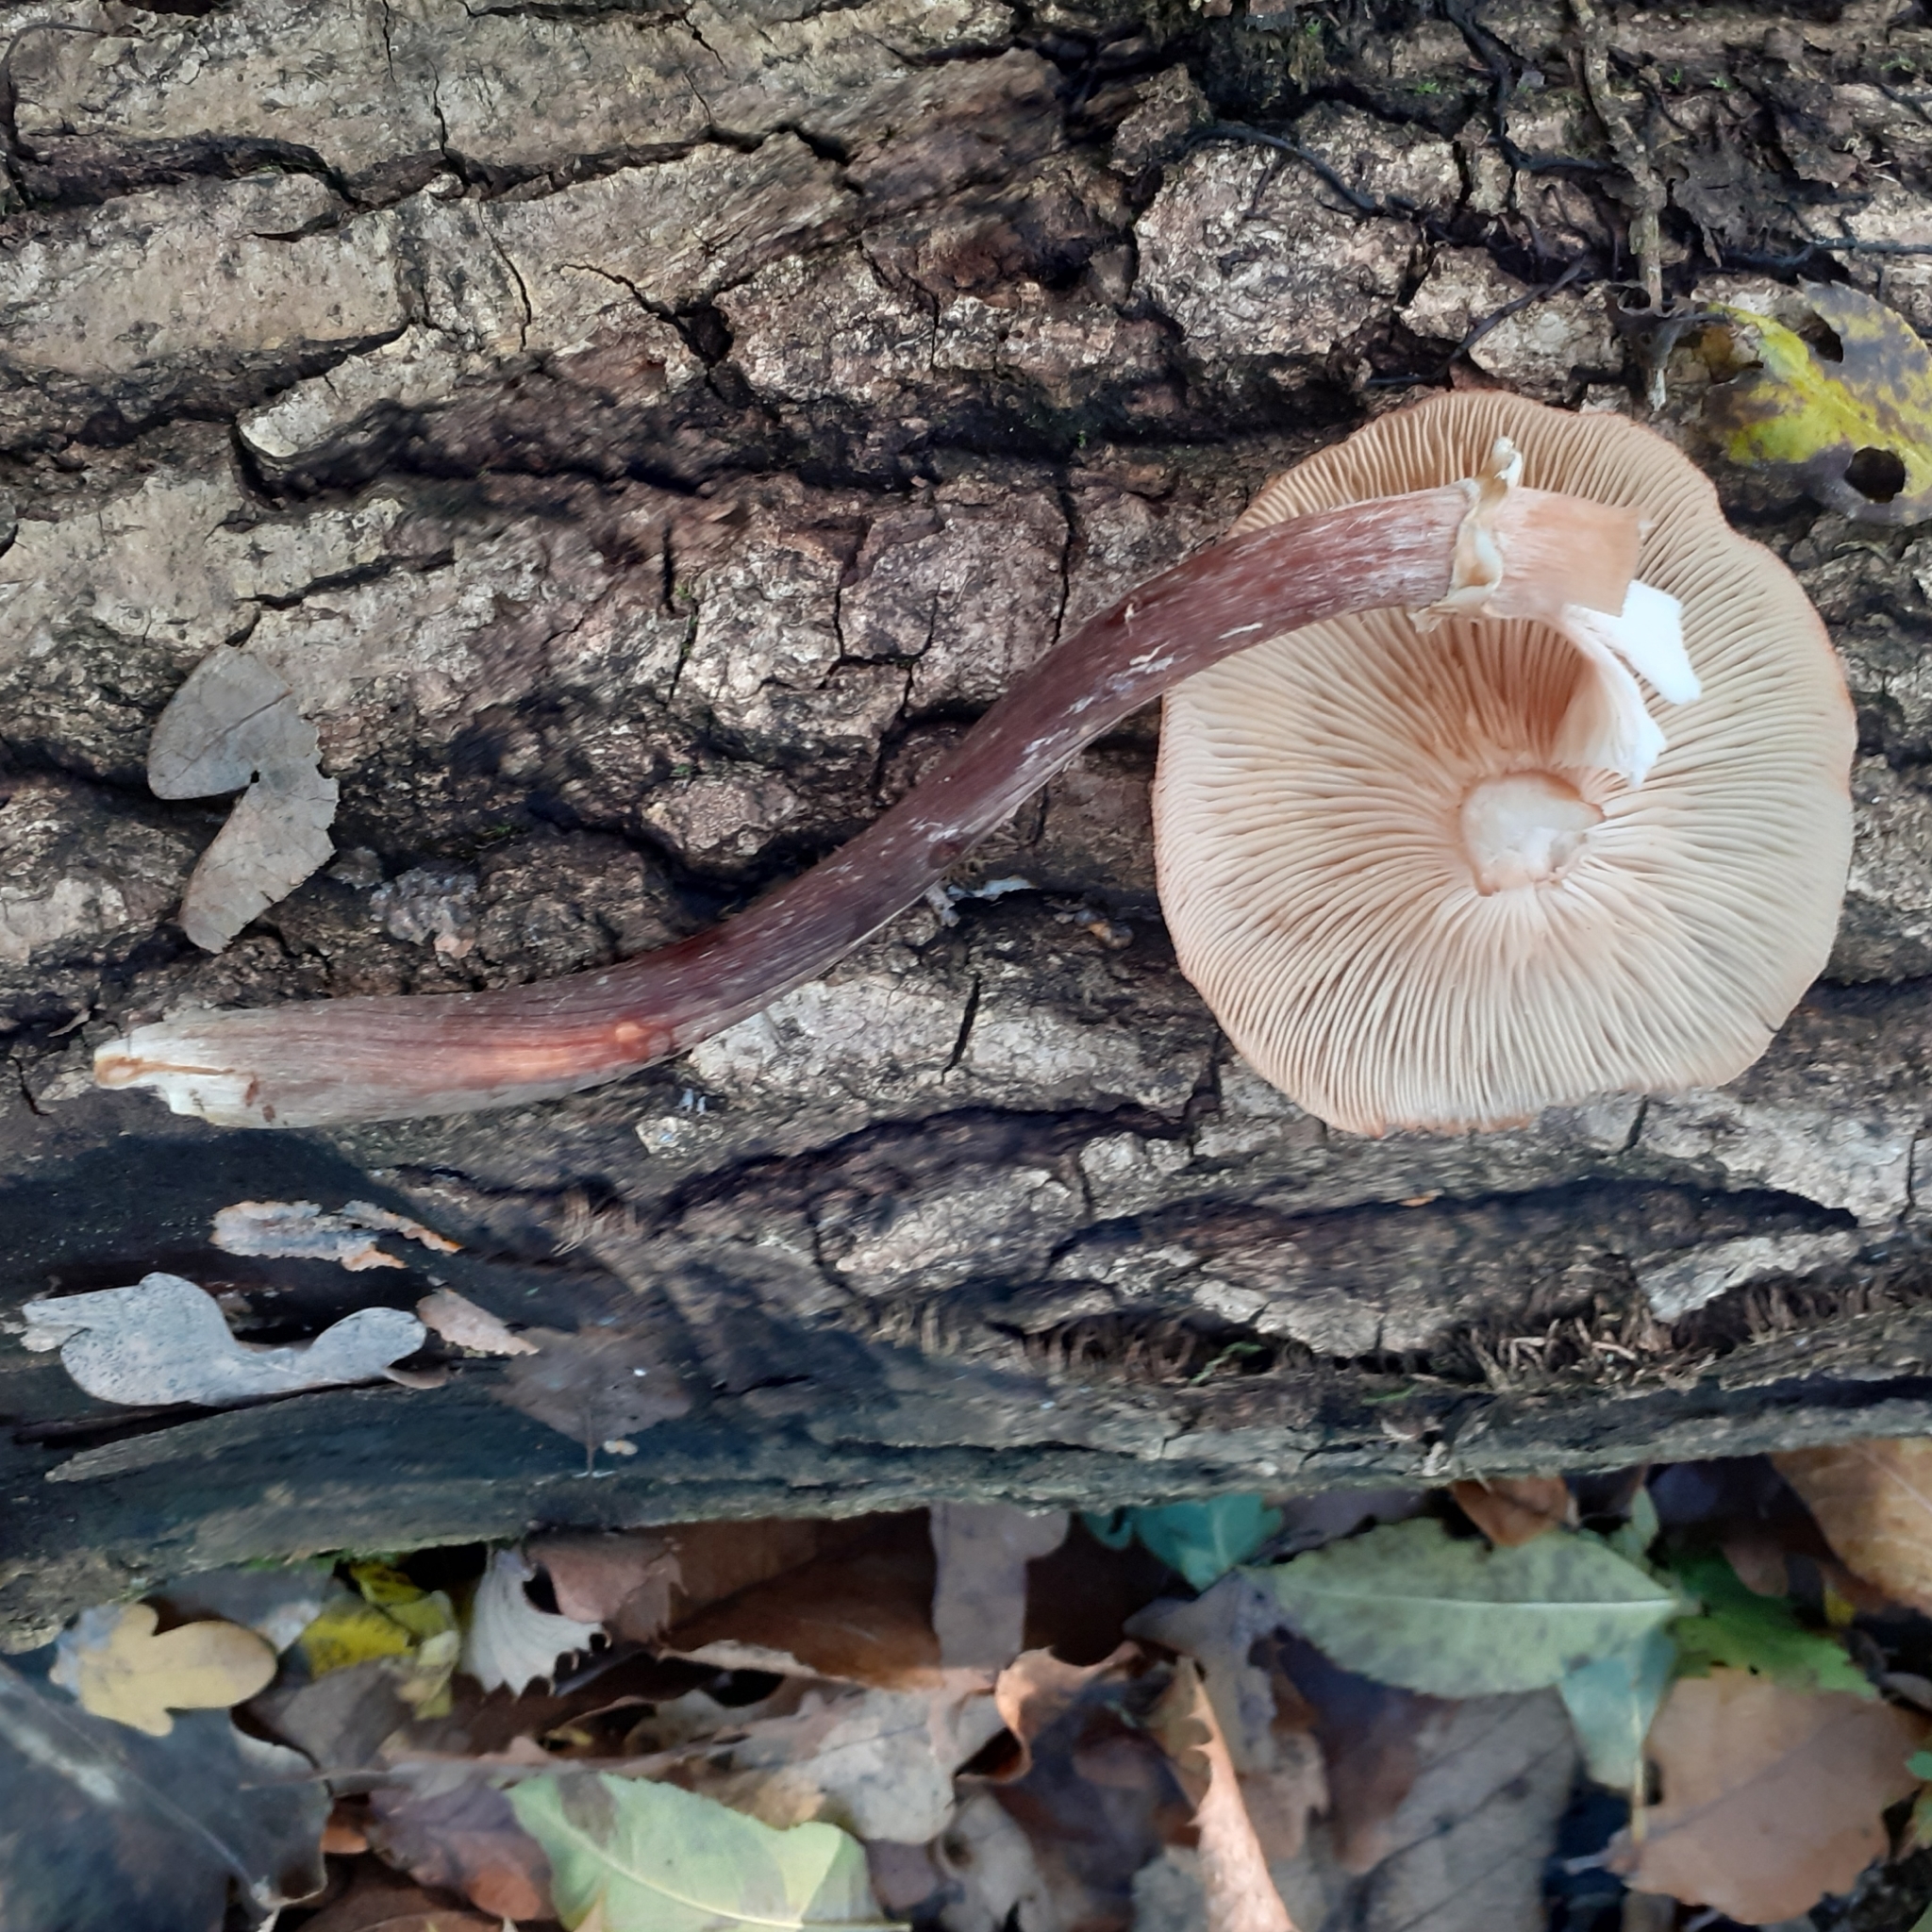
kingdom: Fungi
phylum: Basidiomycota
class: Agaricomycetes
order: Agaricales
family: Physalacriaceae
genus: Armillaria
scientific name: Armillaria mellea
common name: Honey fungus
